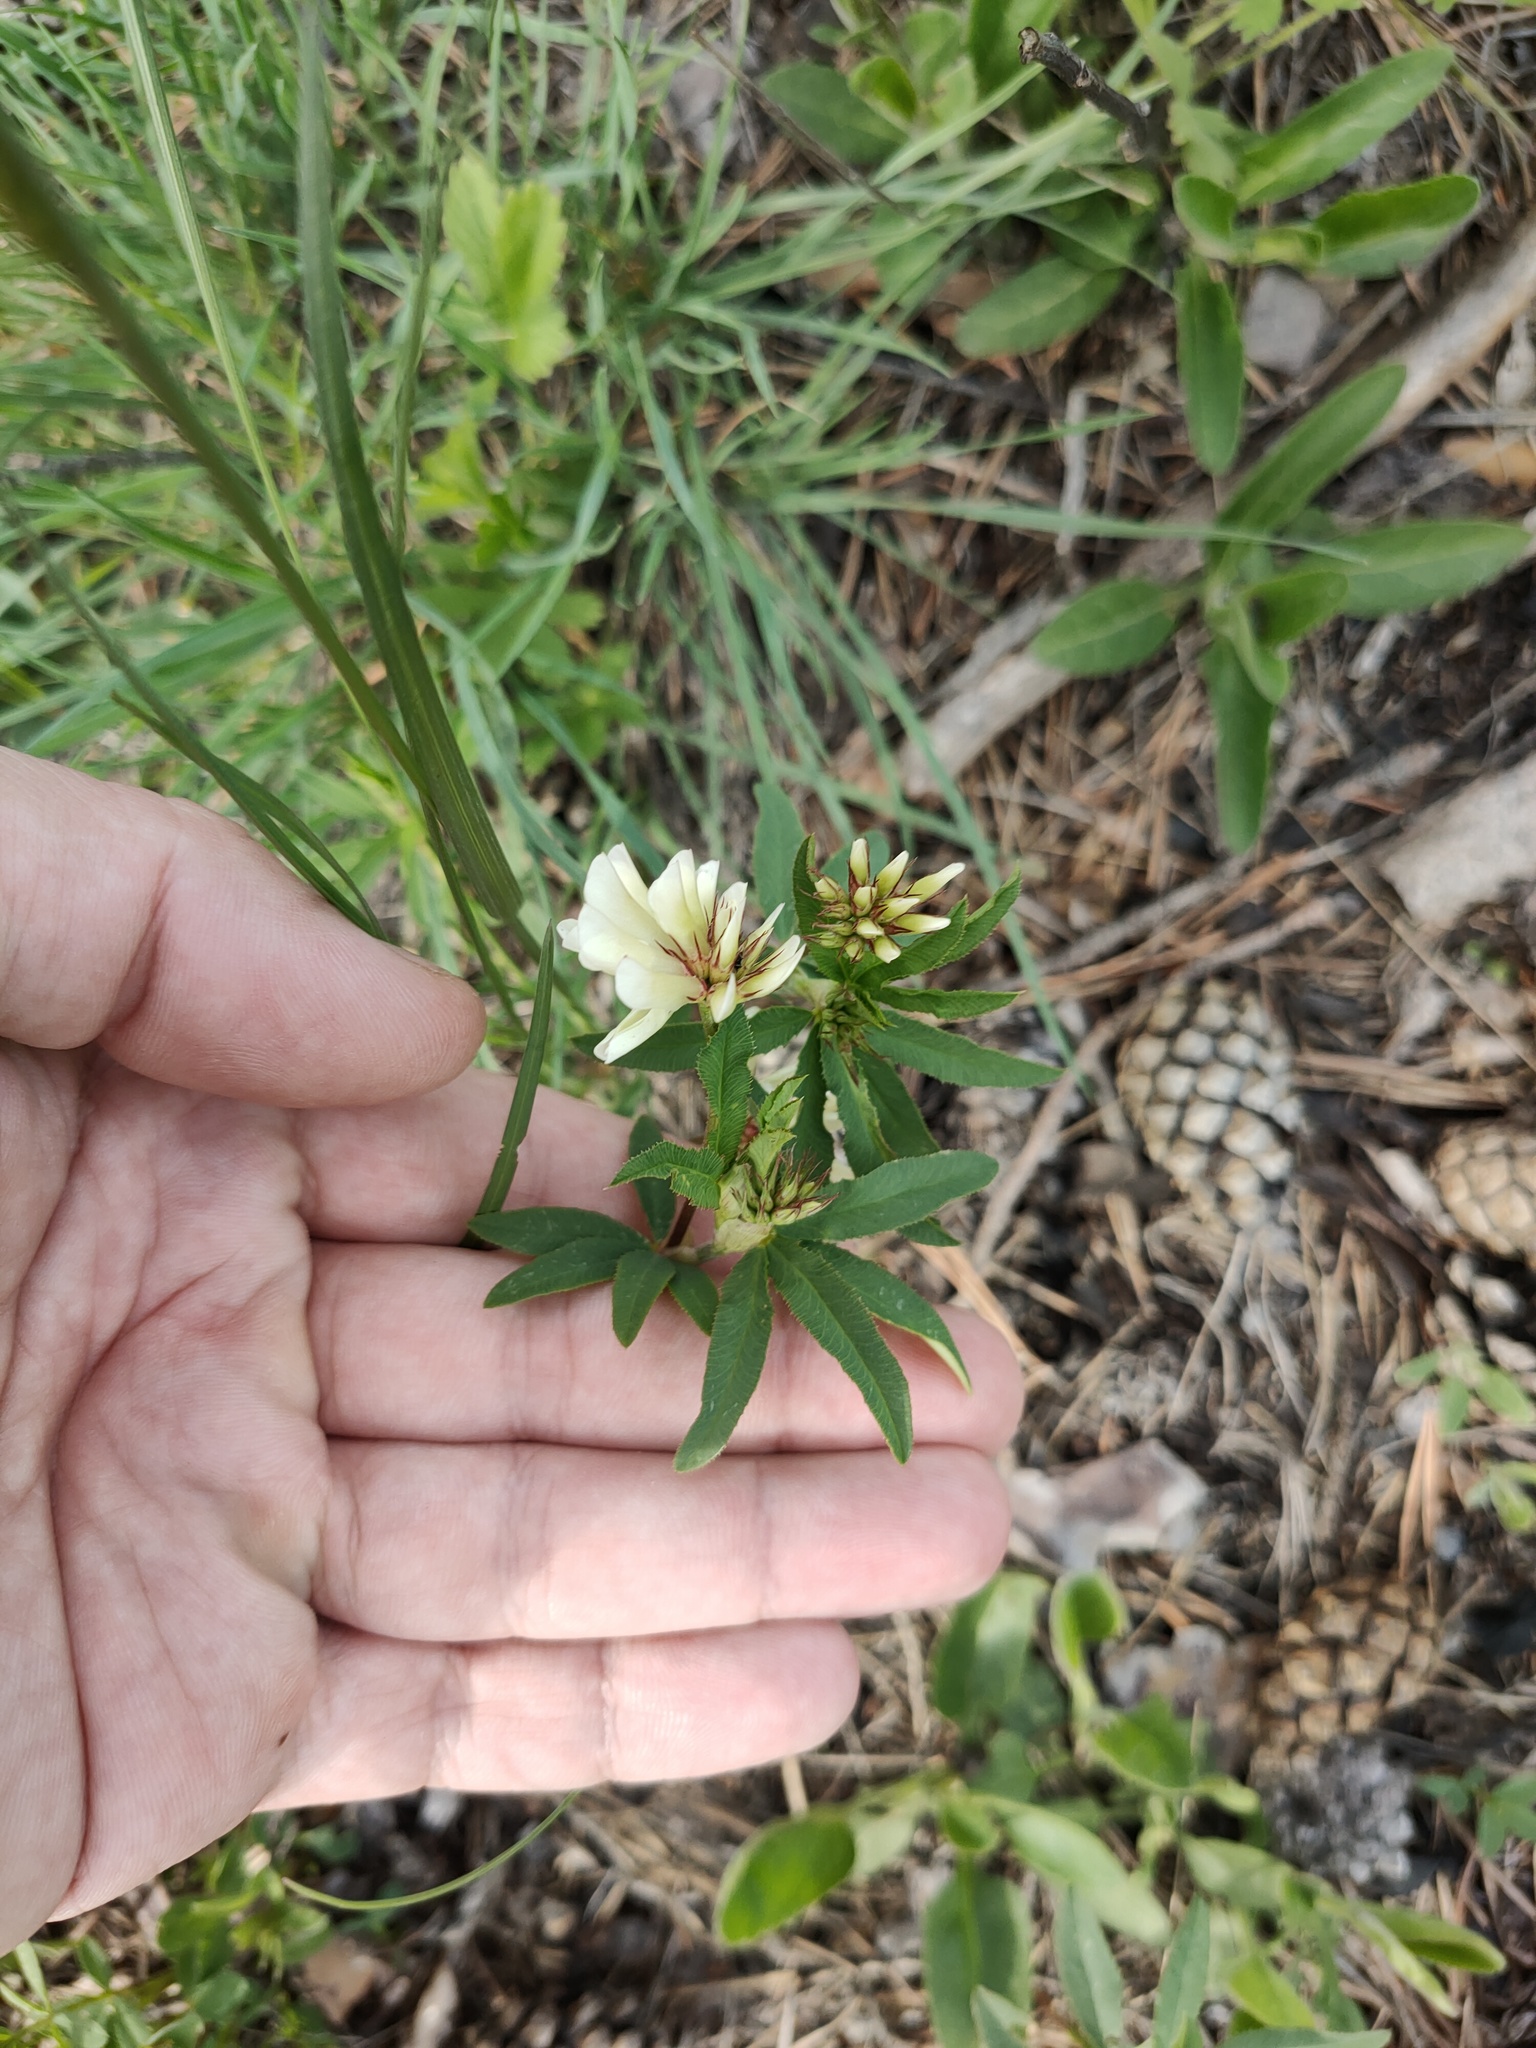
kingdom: Plantae
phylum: Tracheophyta
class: Magnoliopsida
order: Fabales
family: Fabaceae
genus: Trifolium
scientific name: Trifolium lupinaster
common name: Lupine clover
